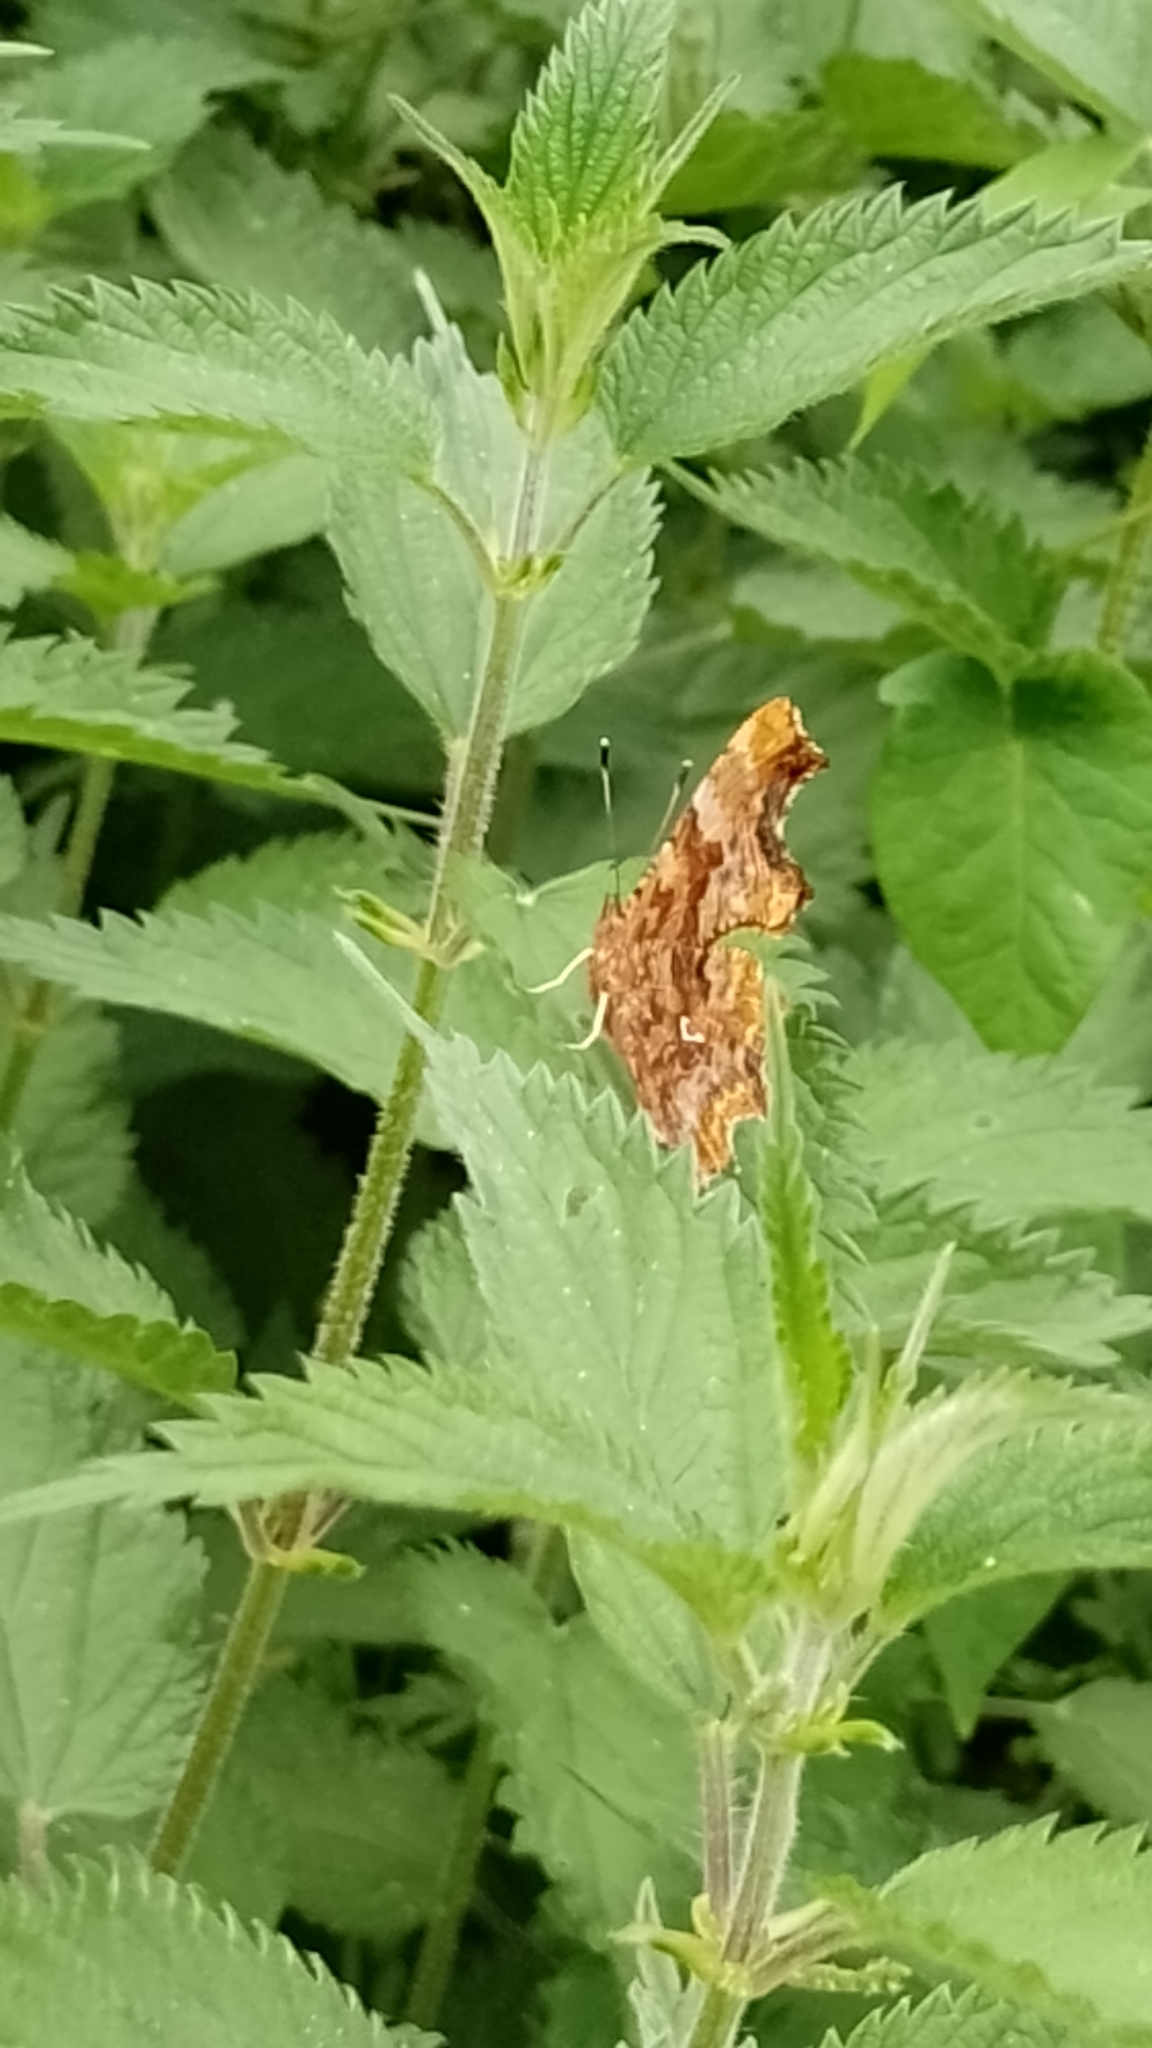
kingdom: Animalia
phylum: Arthropoda
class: Insecta
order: Lepidoptera
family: Nymphalidae
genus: Polygonia
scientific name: Polygonia c-album
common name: Comma
